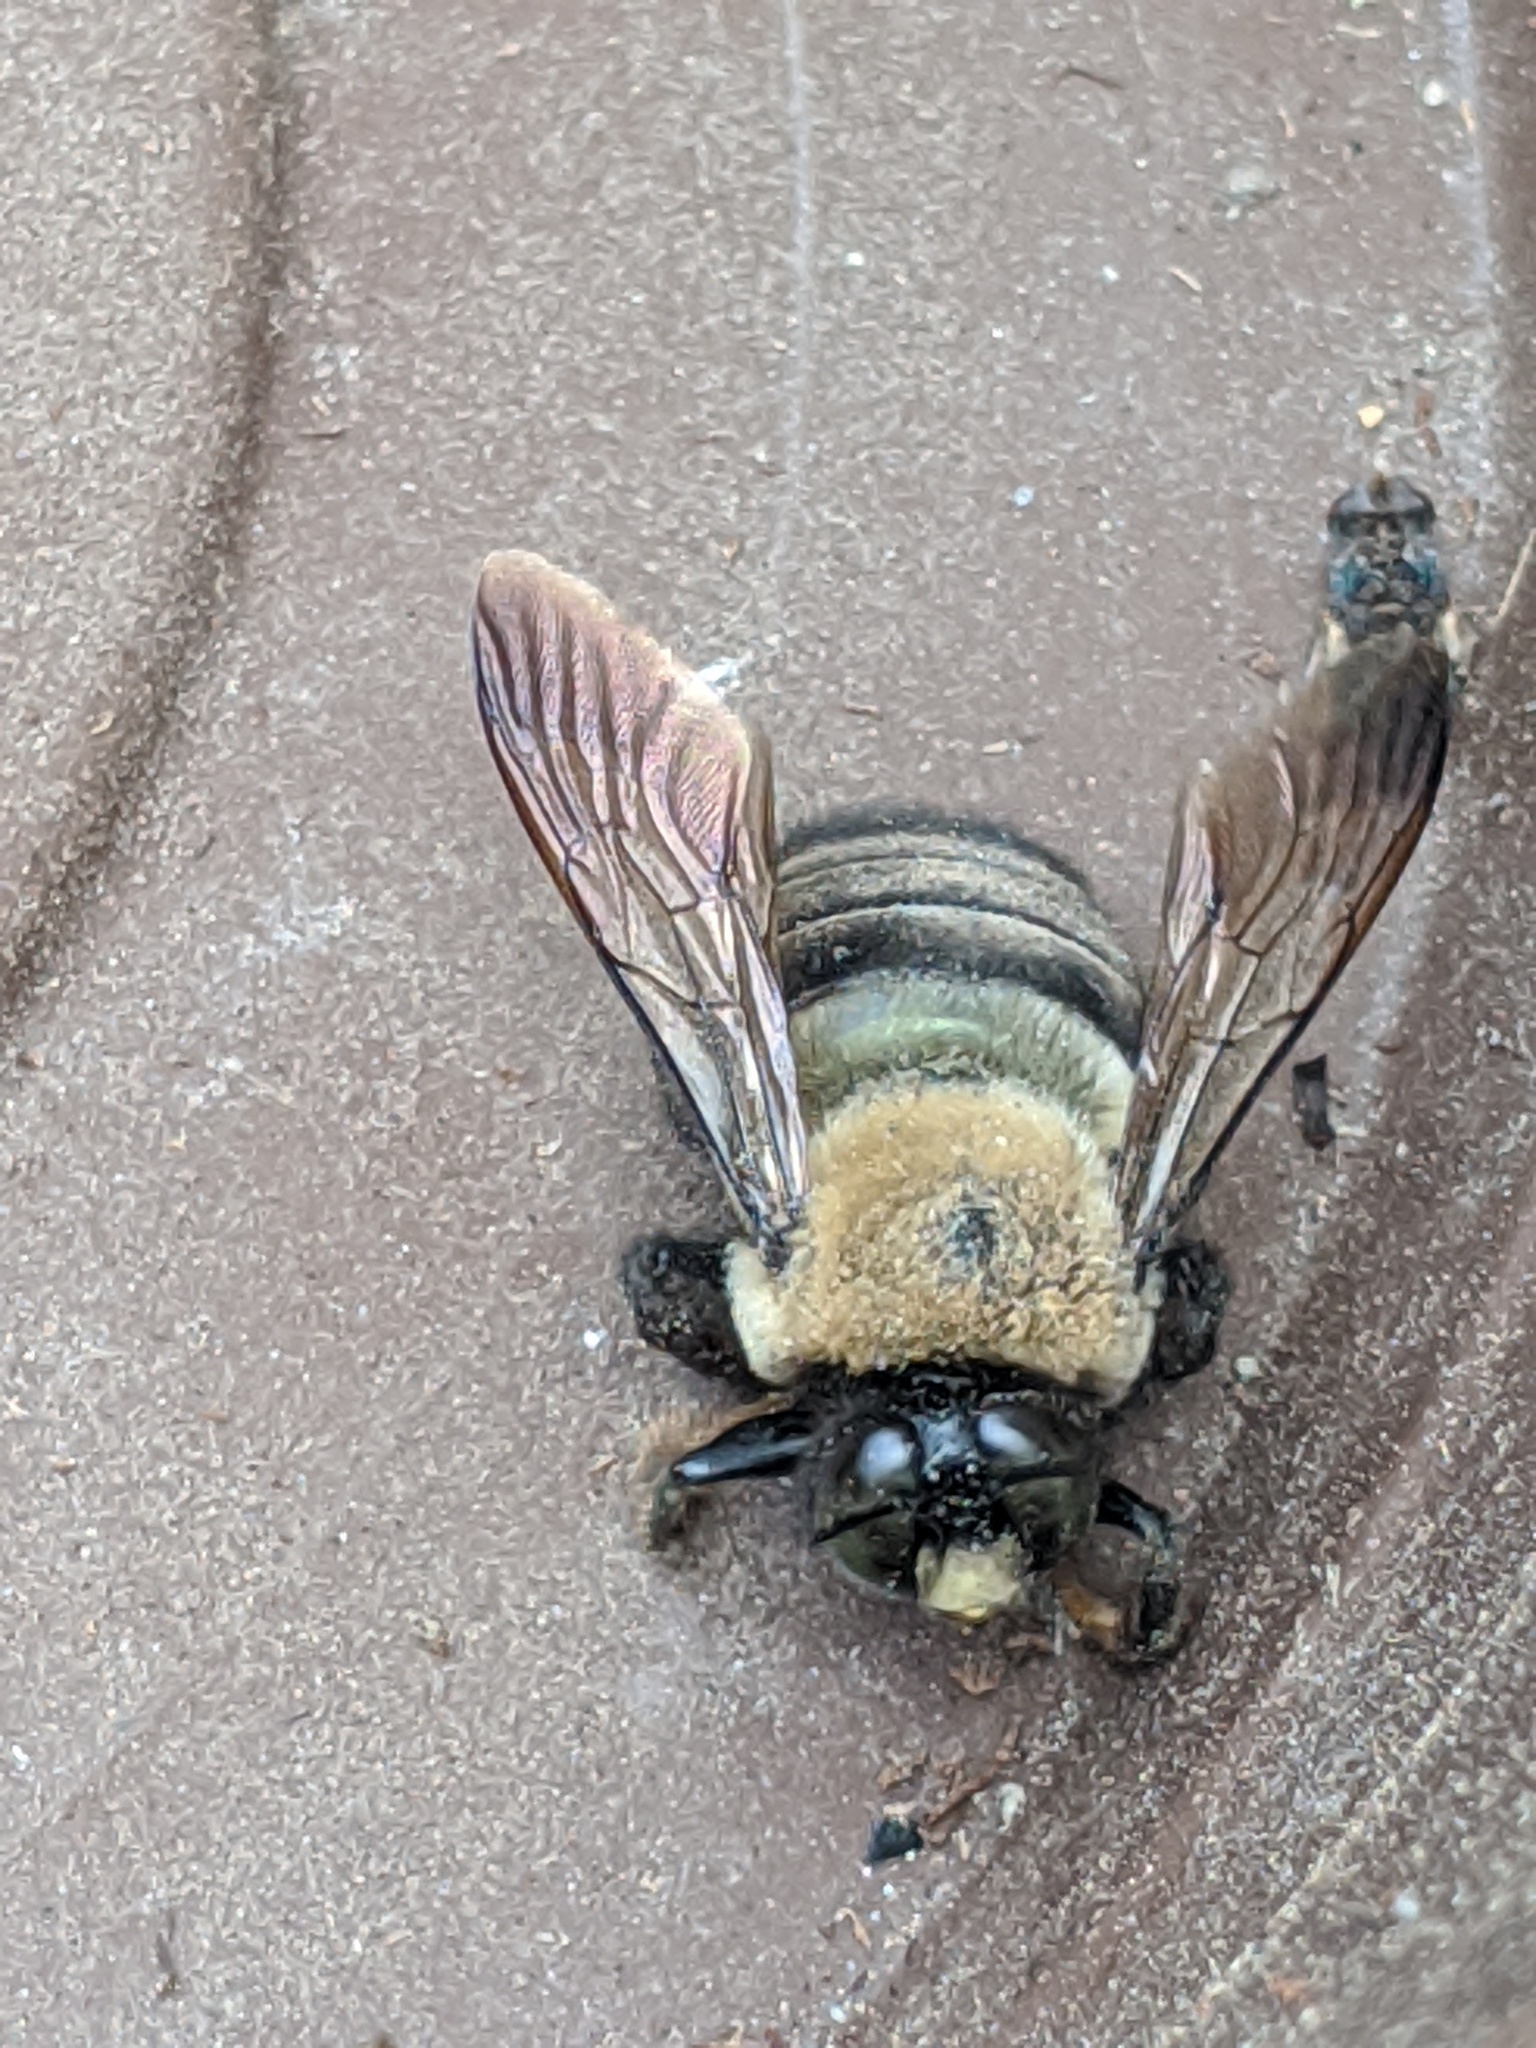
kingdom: Animalia
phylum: Arthropoda
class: Insecta
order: Hymenoptera
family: Apidae
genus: Xylocopa
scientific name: Xylocopa virginica
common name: Carpenter bee
